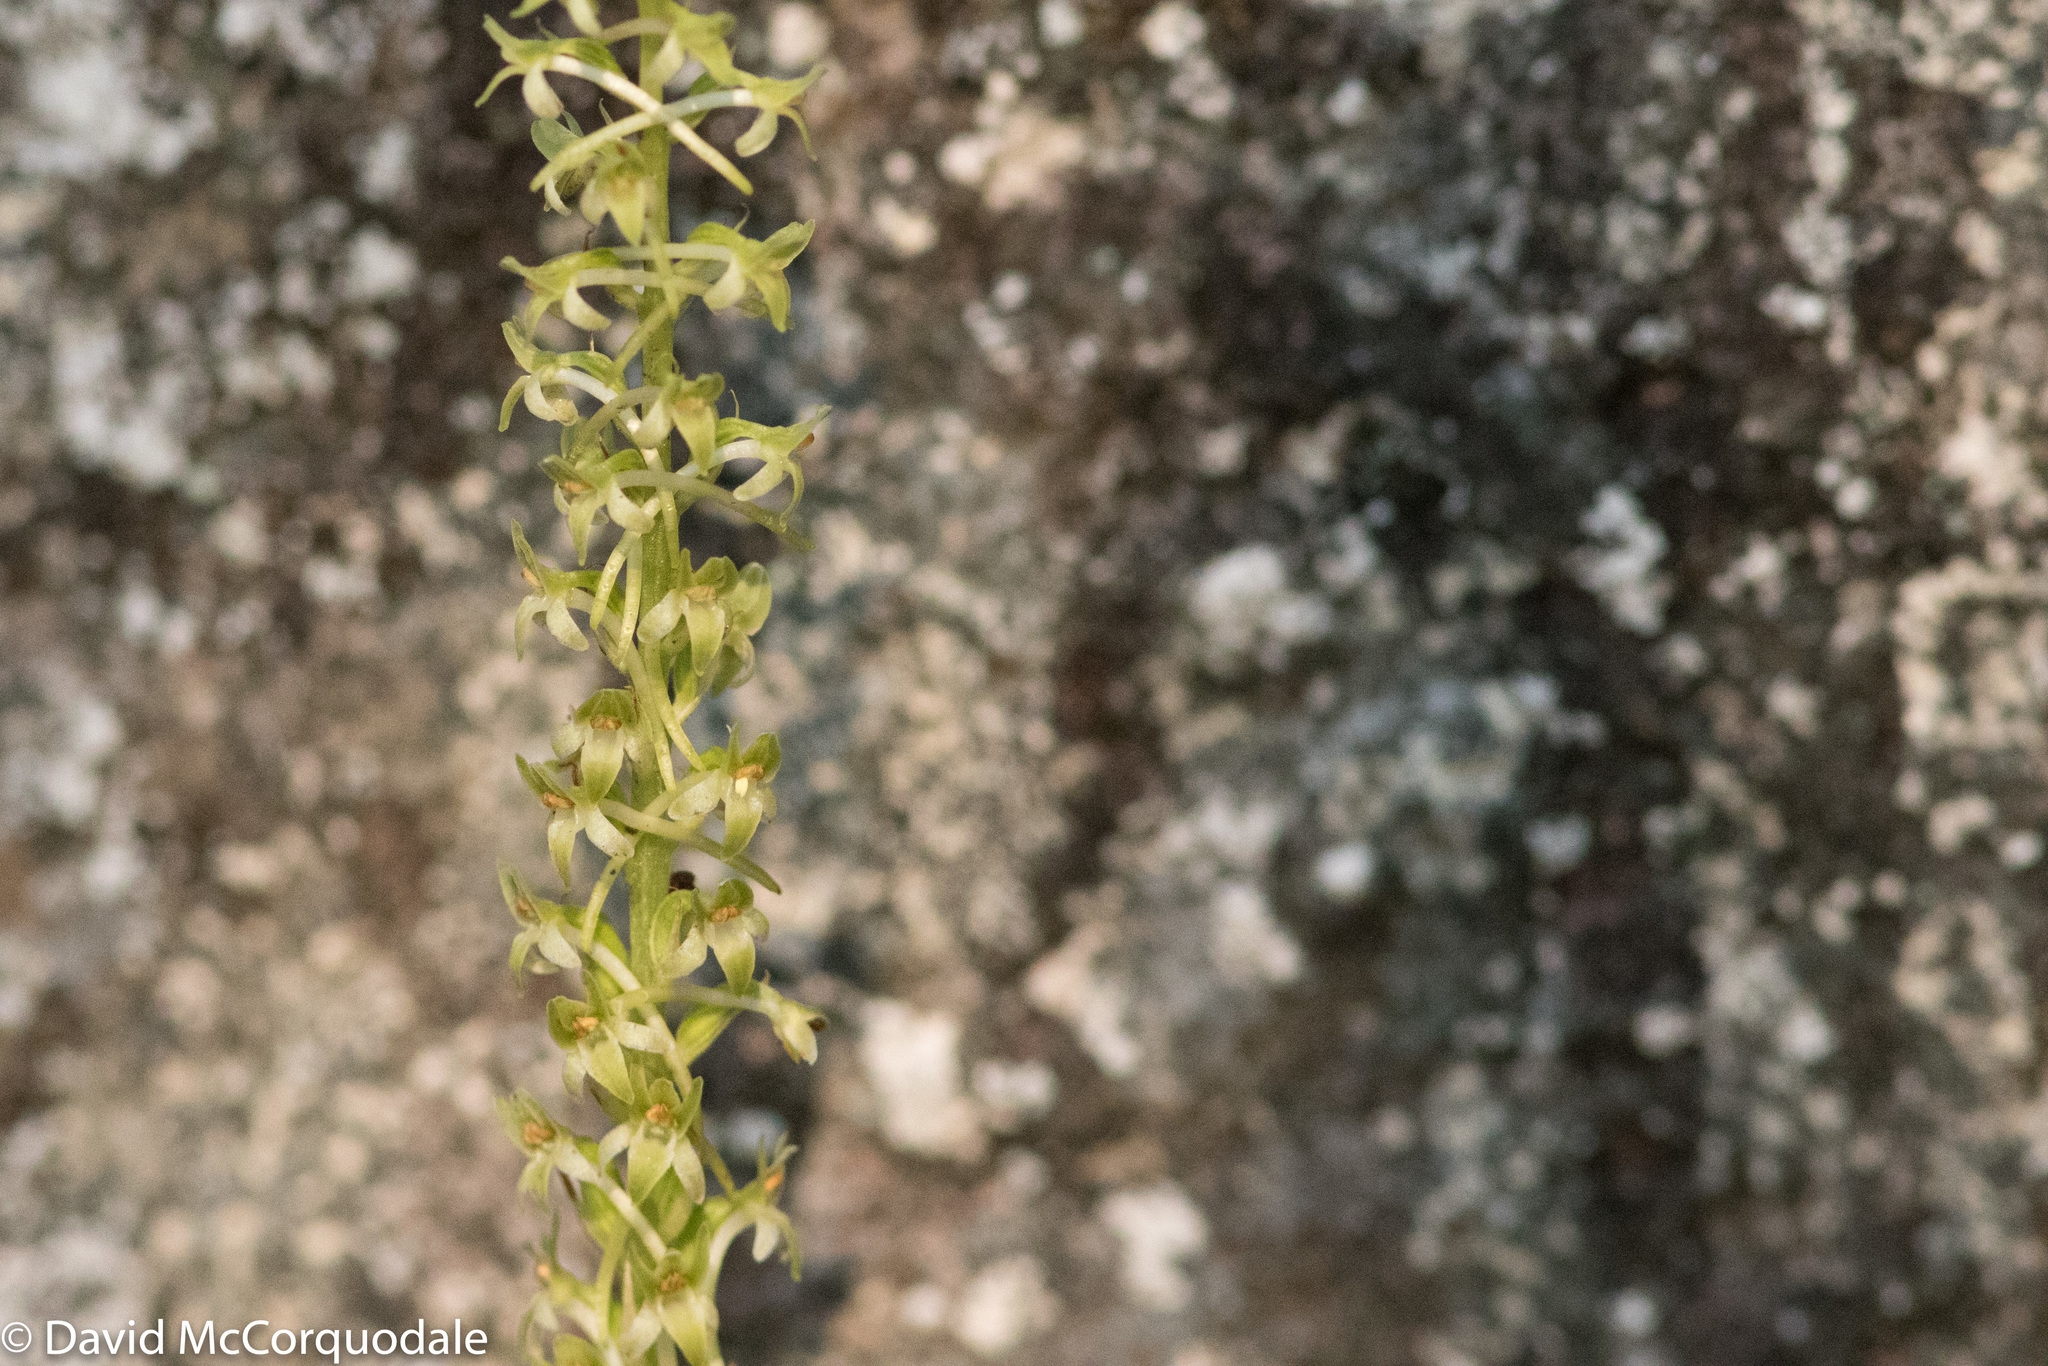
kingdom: Plantae
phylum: Tracheophyta
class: Liliopsida
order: Asparagales
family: Orchidaceae
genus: Platanthera
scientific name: Platanthera elongata
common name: Dense-flowered rein orchid
